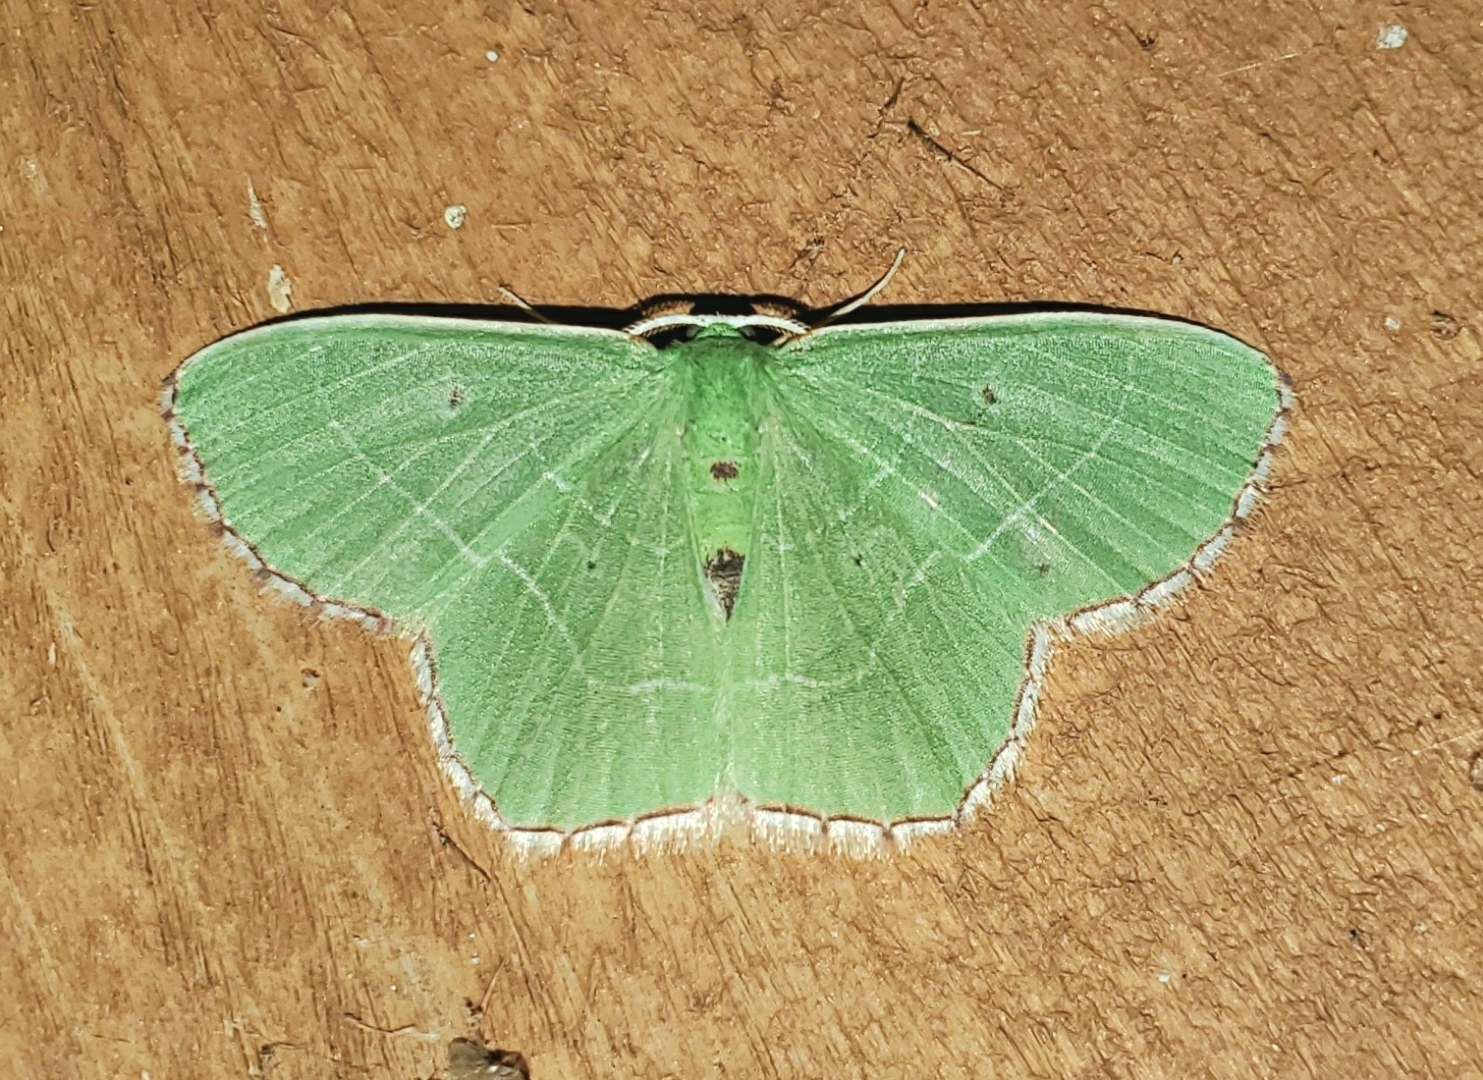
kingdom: Animalia
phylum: Arthropoda
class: Insecta
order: Lepidoptera
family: Geometridae
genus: Nemoria
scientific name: Nemoria saturiba
